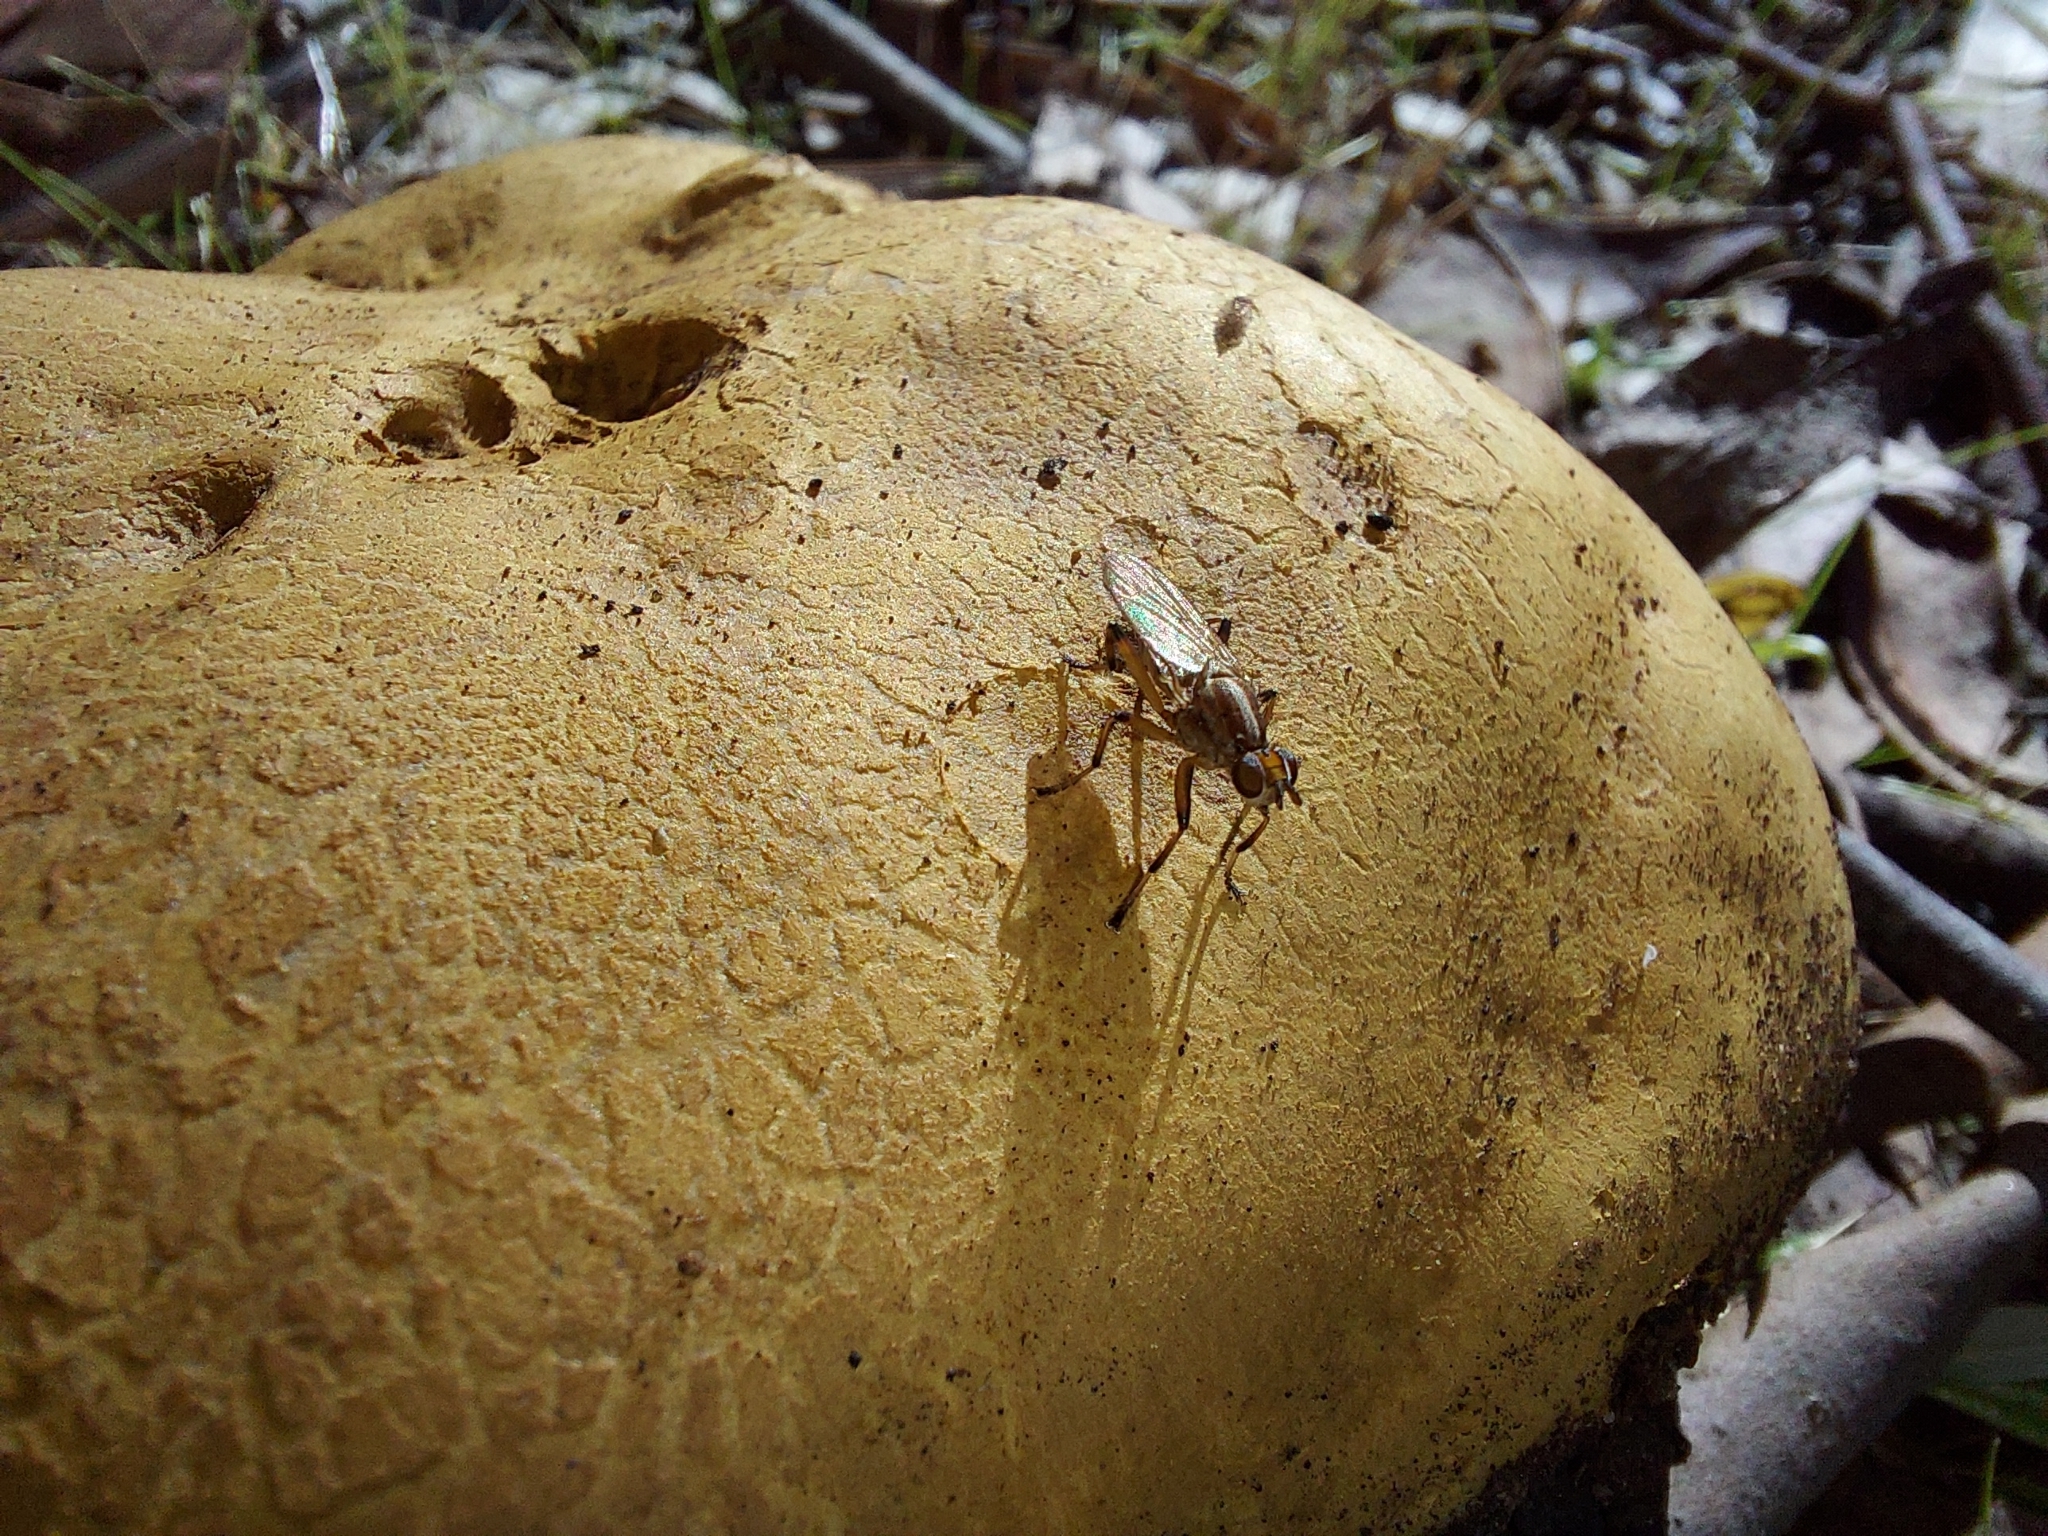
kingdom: Animalia
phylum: Arthropoda
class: Insecta
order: Diptera
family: Heleomyzidae
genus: Tapeigaster
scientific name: Tapeigaster paramonovi
